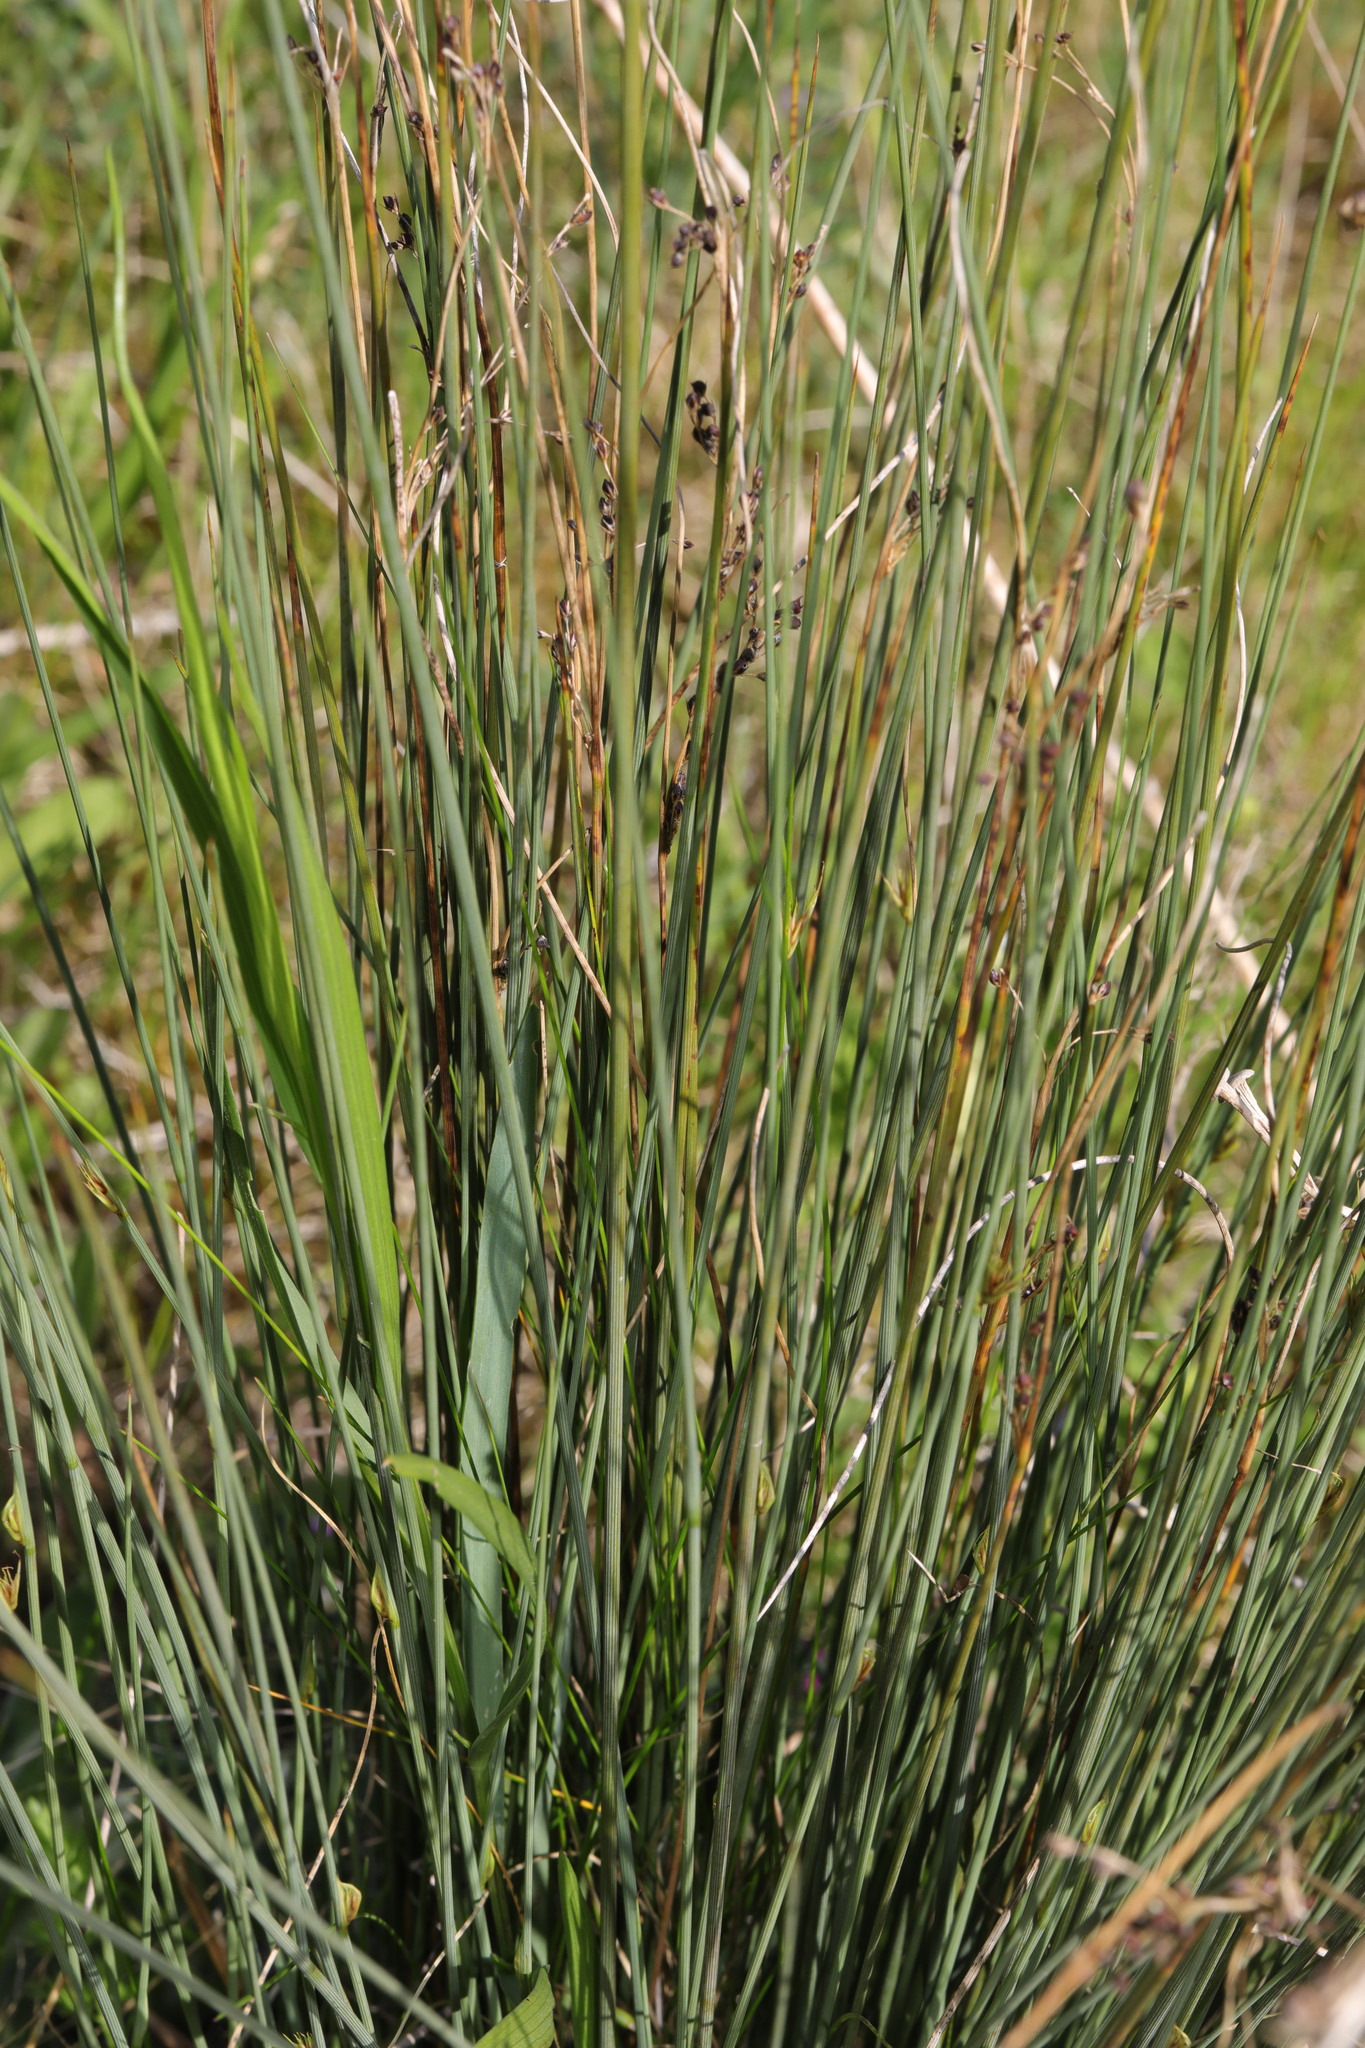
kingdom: Plantae
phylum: Tracheophyta
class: Liliopsida
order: Poales
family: Juncaceae
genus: Juncus
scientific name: Juncus inflexus
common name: Hard rush
